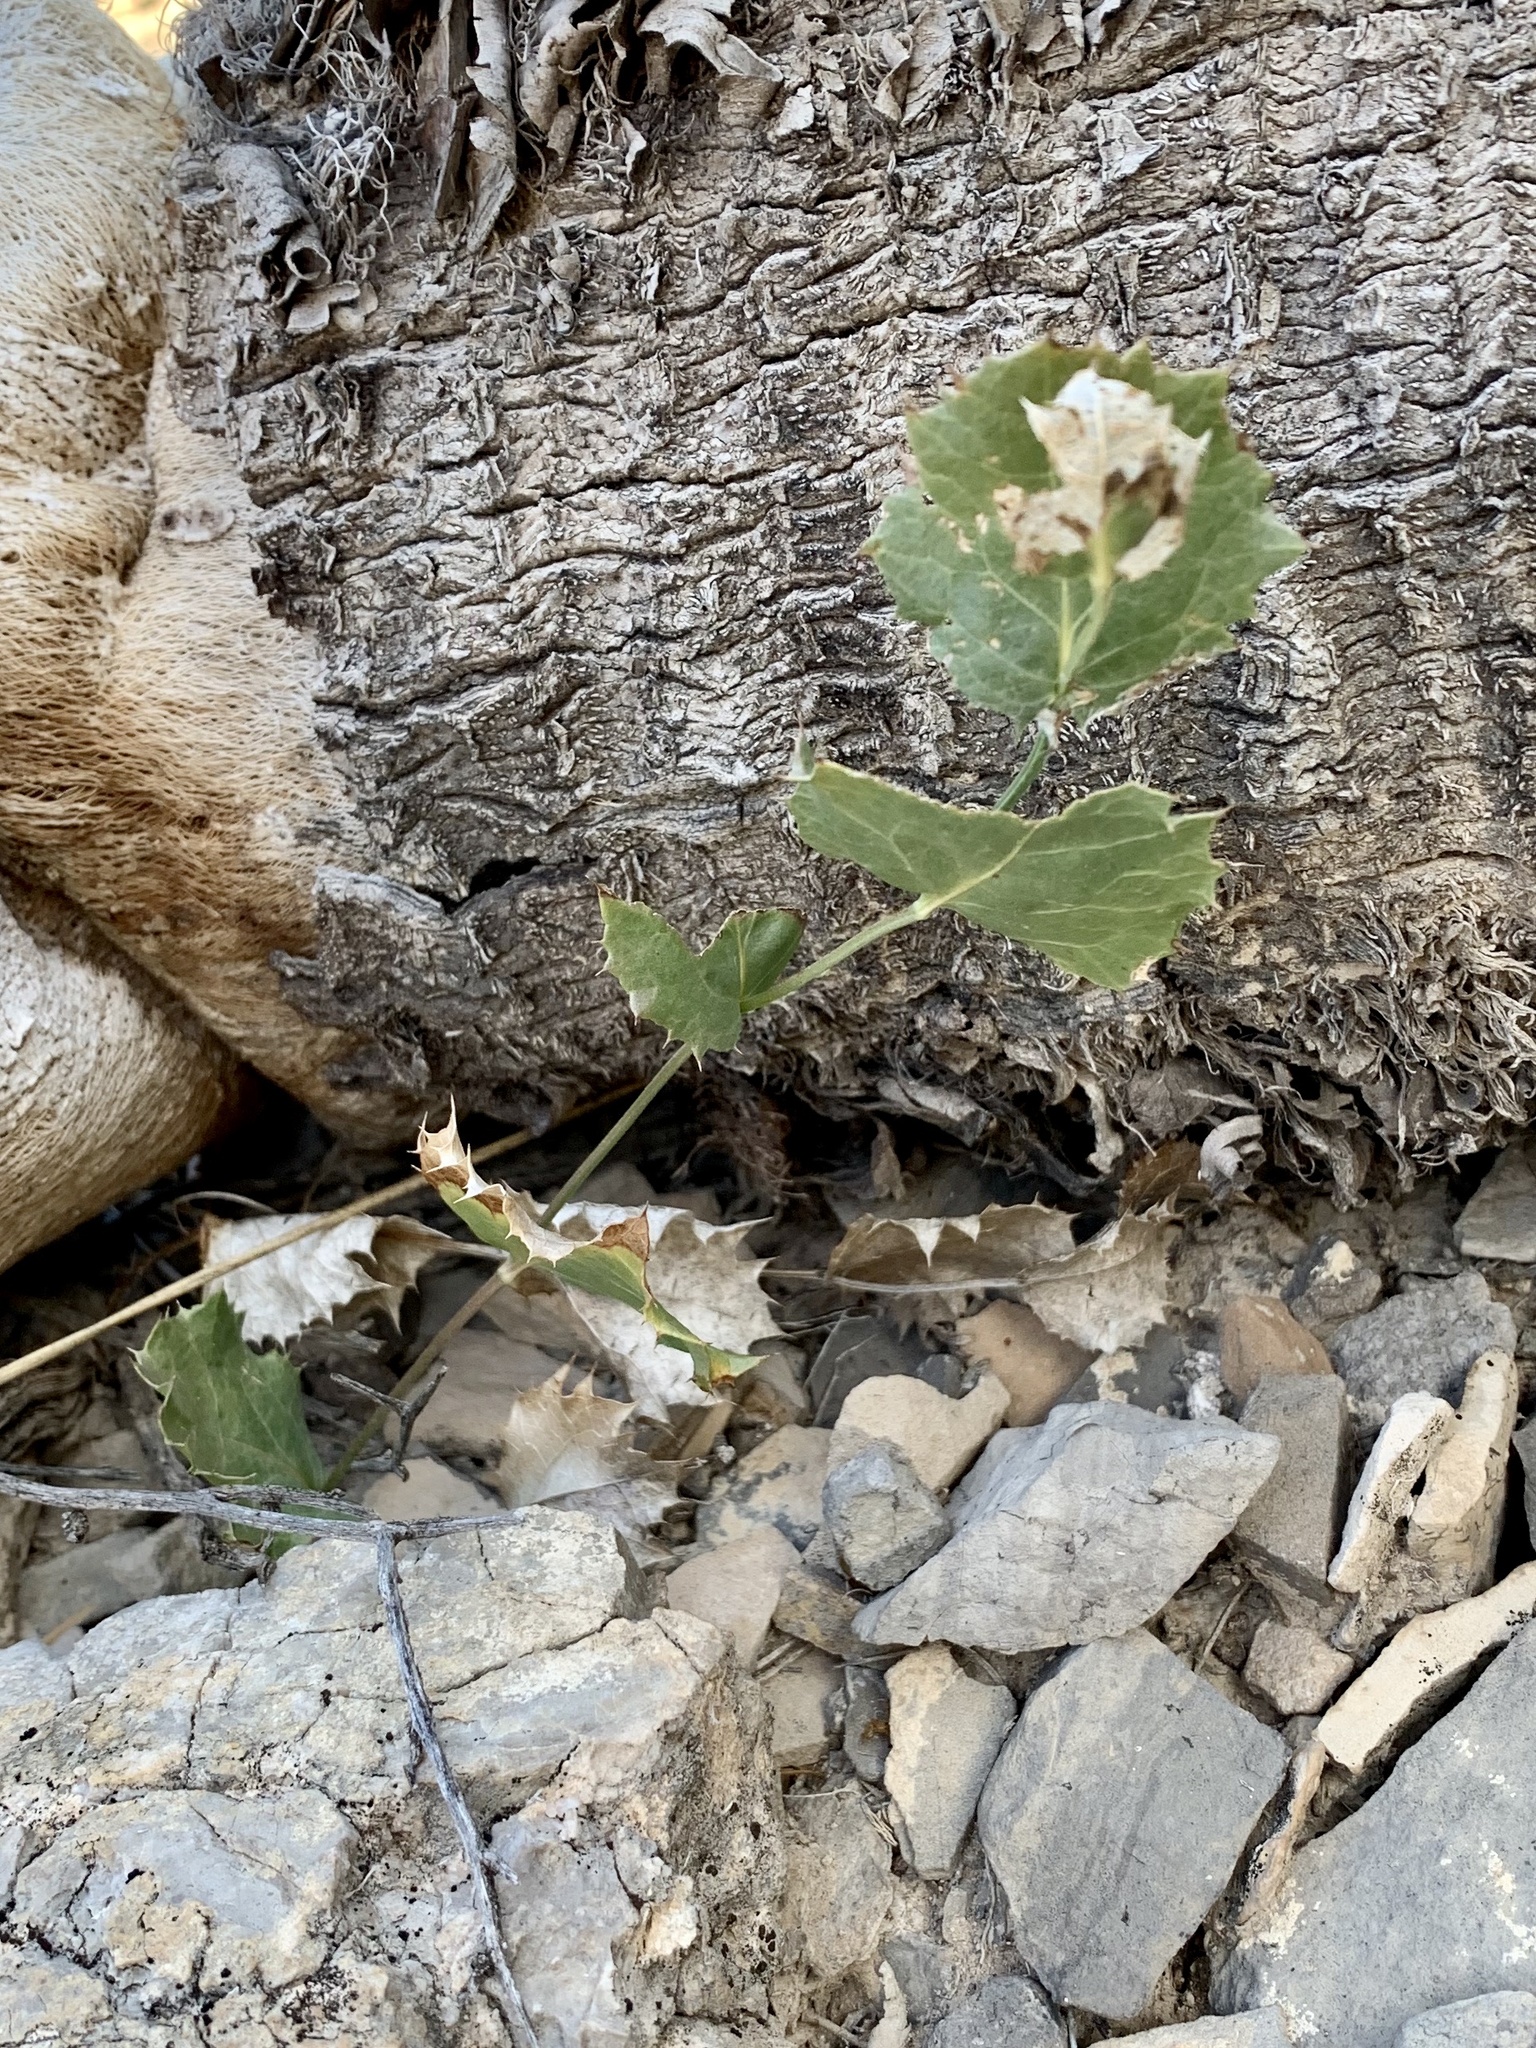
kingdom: Plantae
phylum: Tracheophyta
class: Magnoliopsida
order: Asterales
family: Asteraceae
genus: Acourtia
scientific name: Acourtia nana
